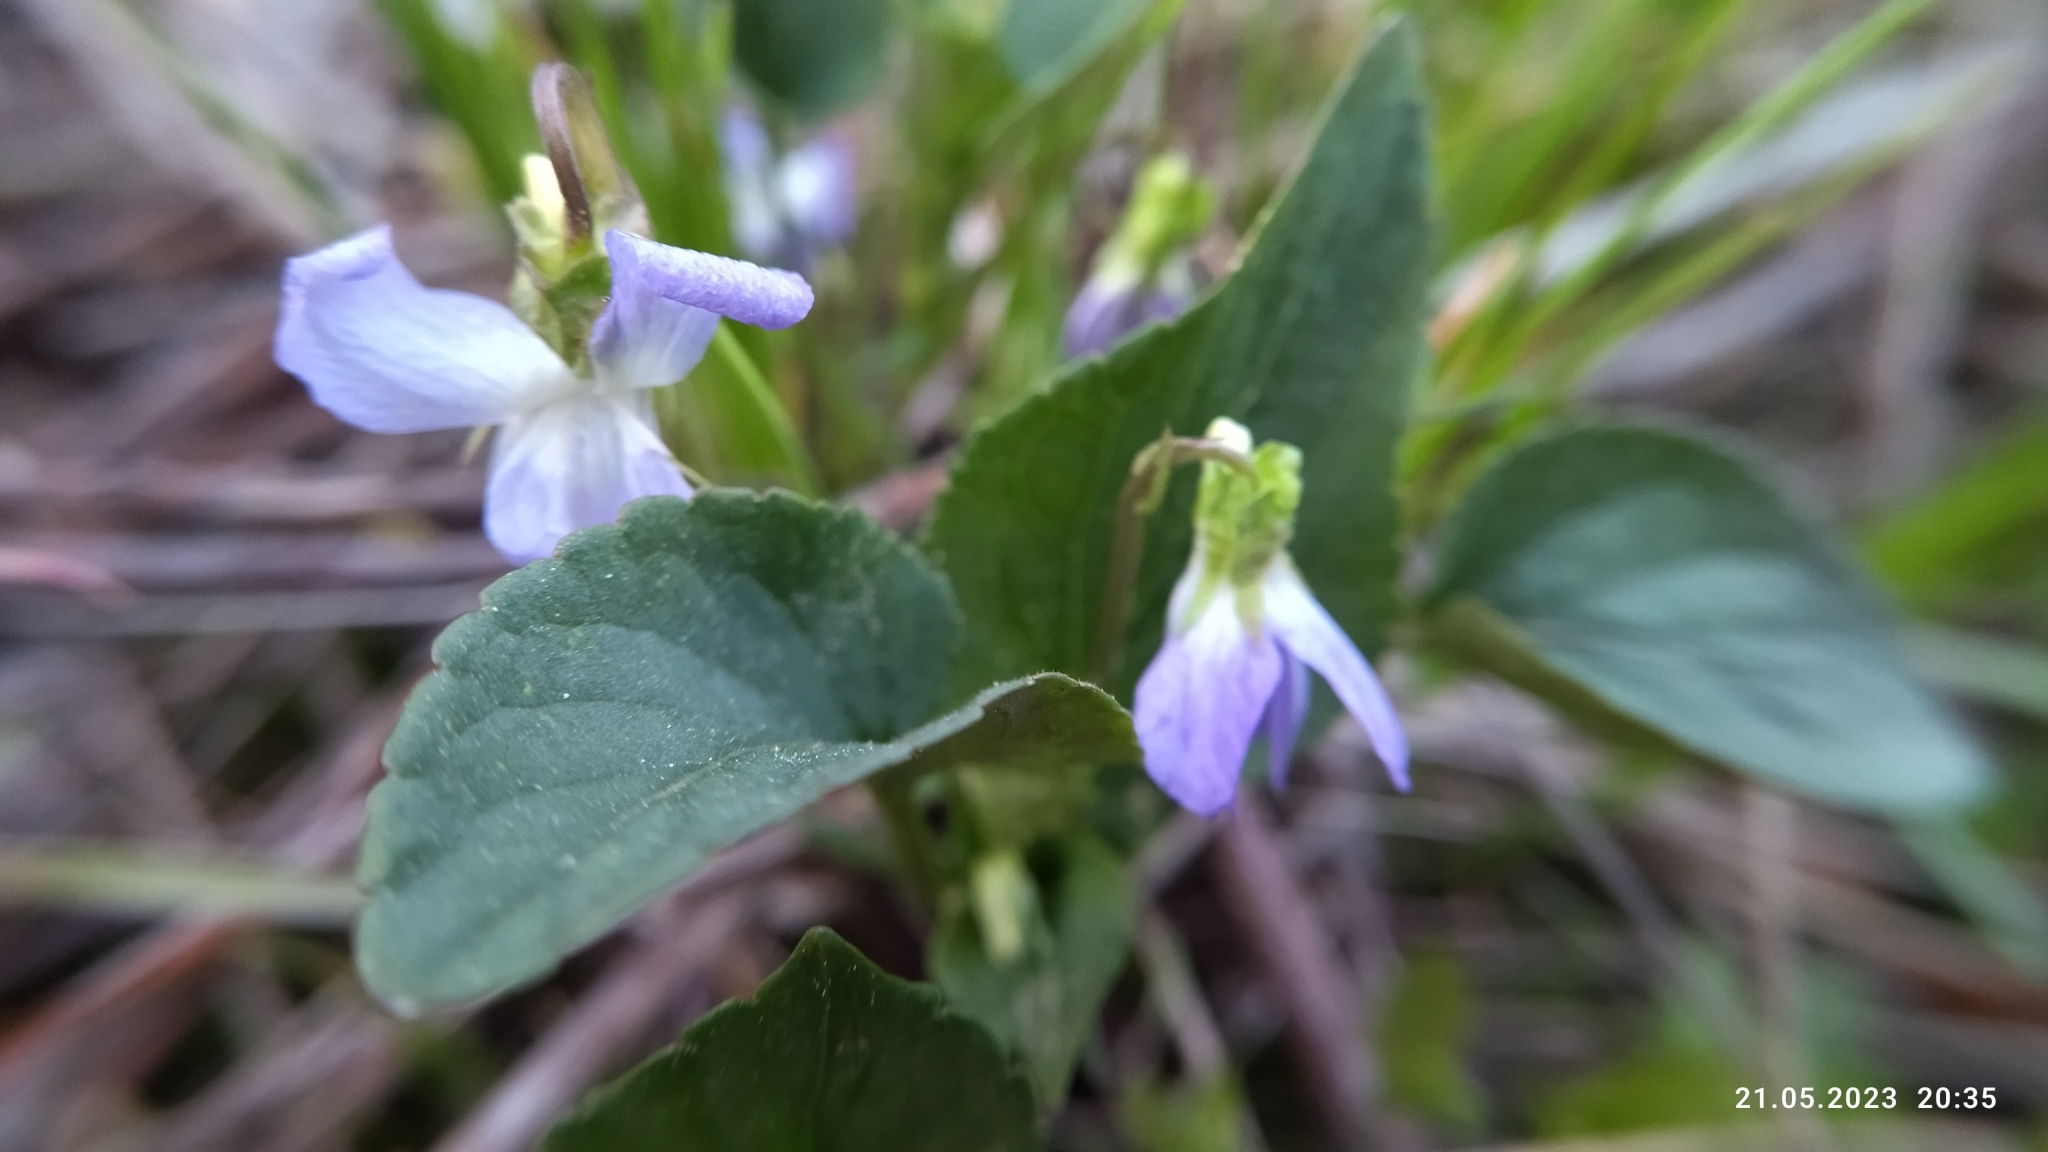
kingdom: Plantae
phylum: Tracheophyta
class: Magnoliopsida
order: Malpighiales
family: Violaceae
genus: Viola
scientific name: Viola canina
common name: Heath dog-violet
